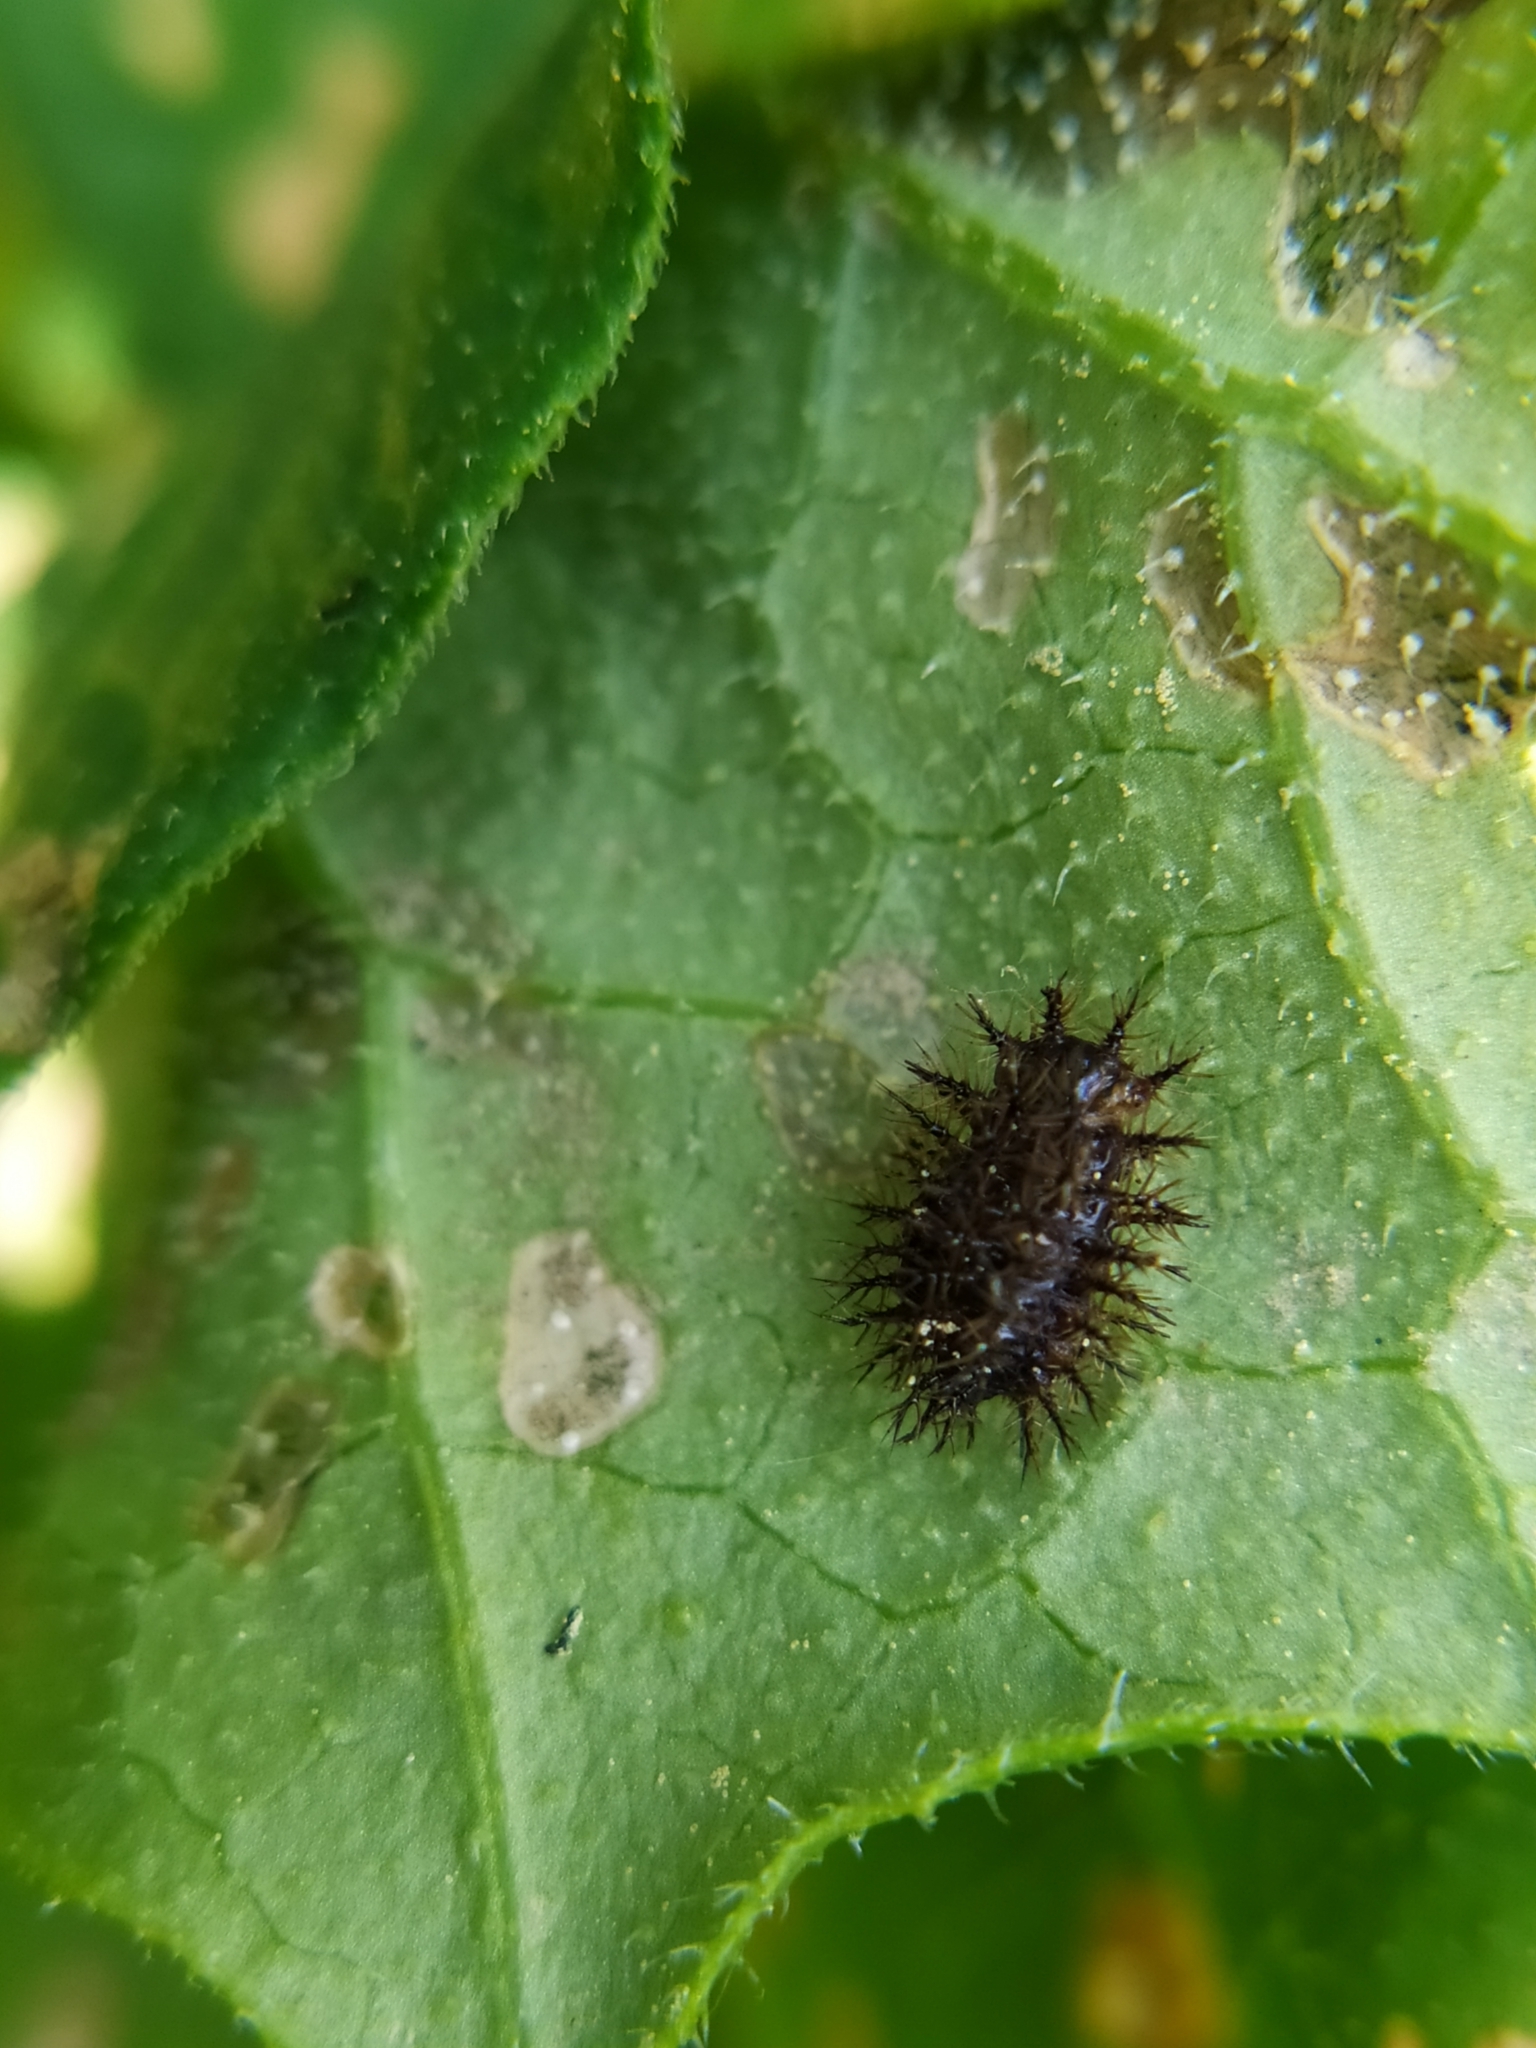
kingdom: Animalia
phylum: Arthropoda
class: Insecta
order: Coleoptera
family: Coccinellidae
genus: Henosepilachna
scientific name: Henosepilachna argus
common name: Bryony ladybird
